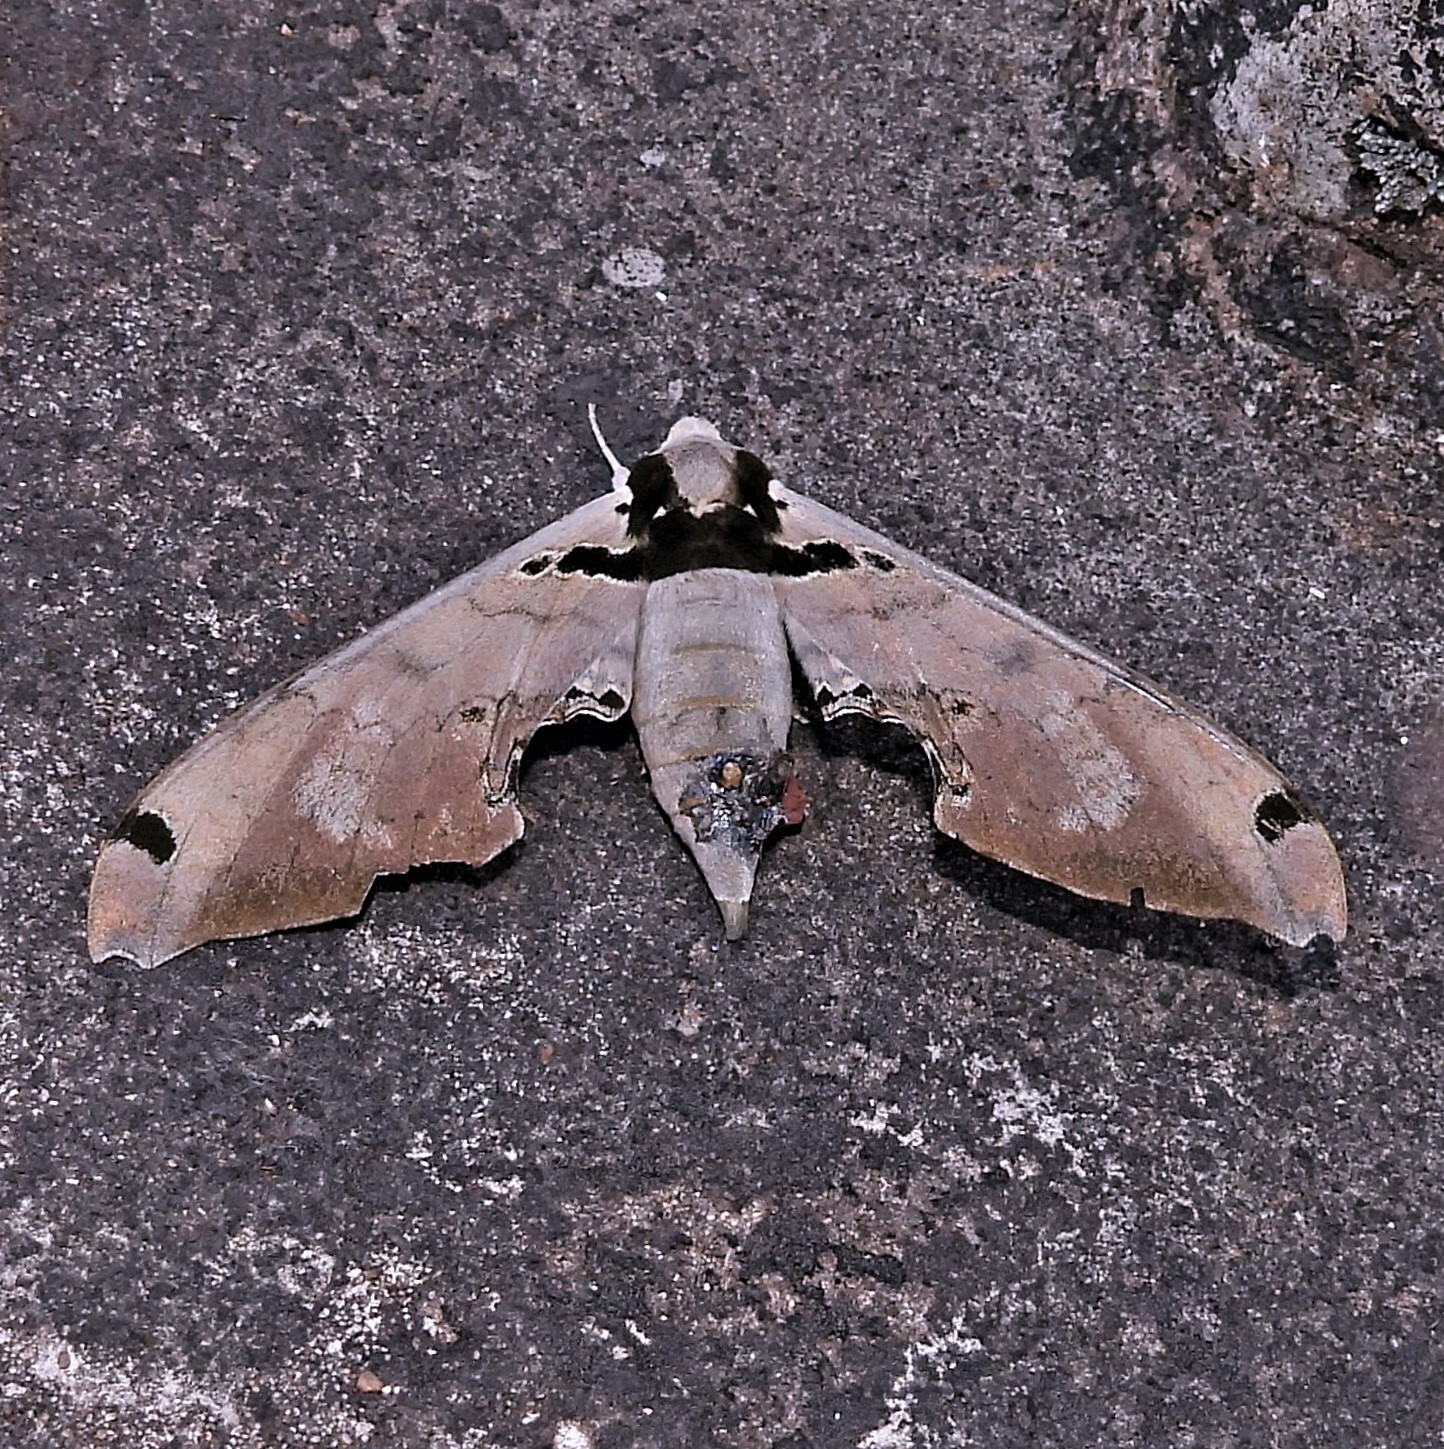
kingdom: Animalia
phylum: Arthropoda
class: Insecta
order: Lepidoptera
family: Sphingidae
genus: Adhemarius
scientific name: Adhemarius daphne
